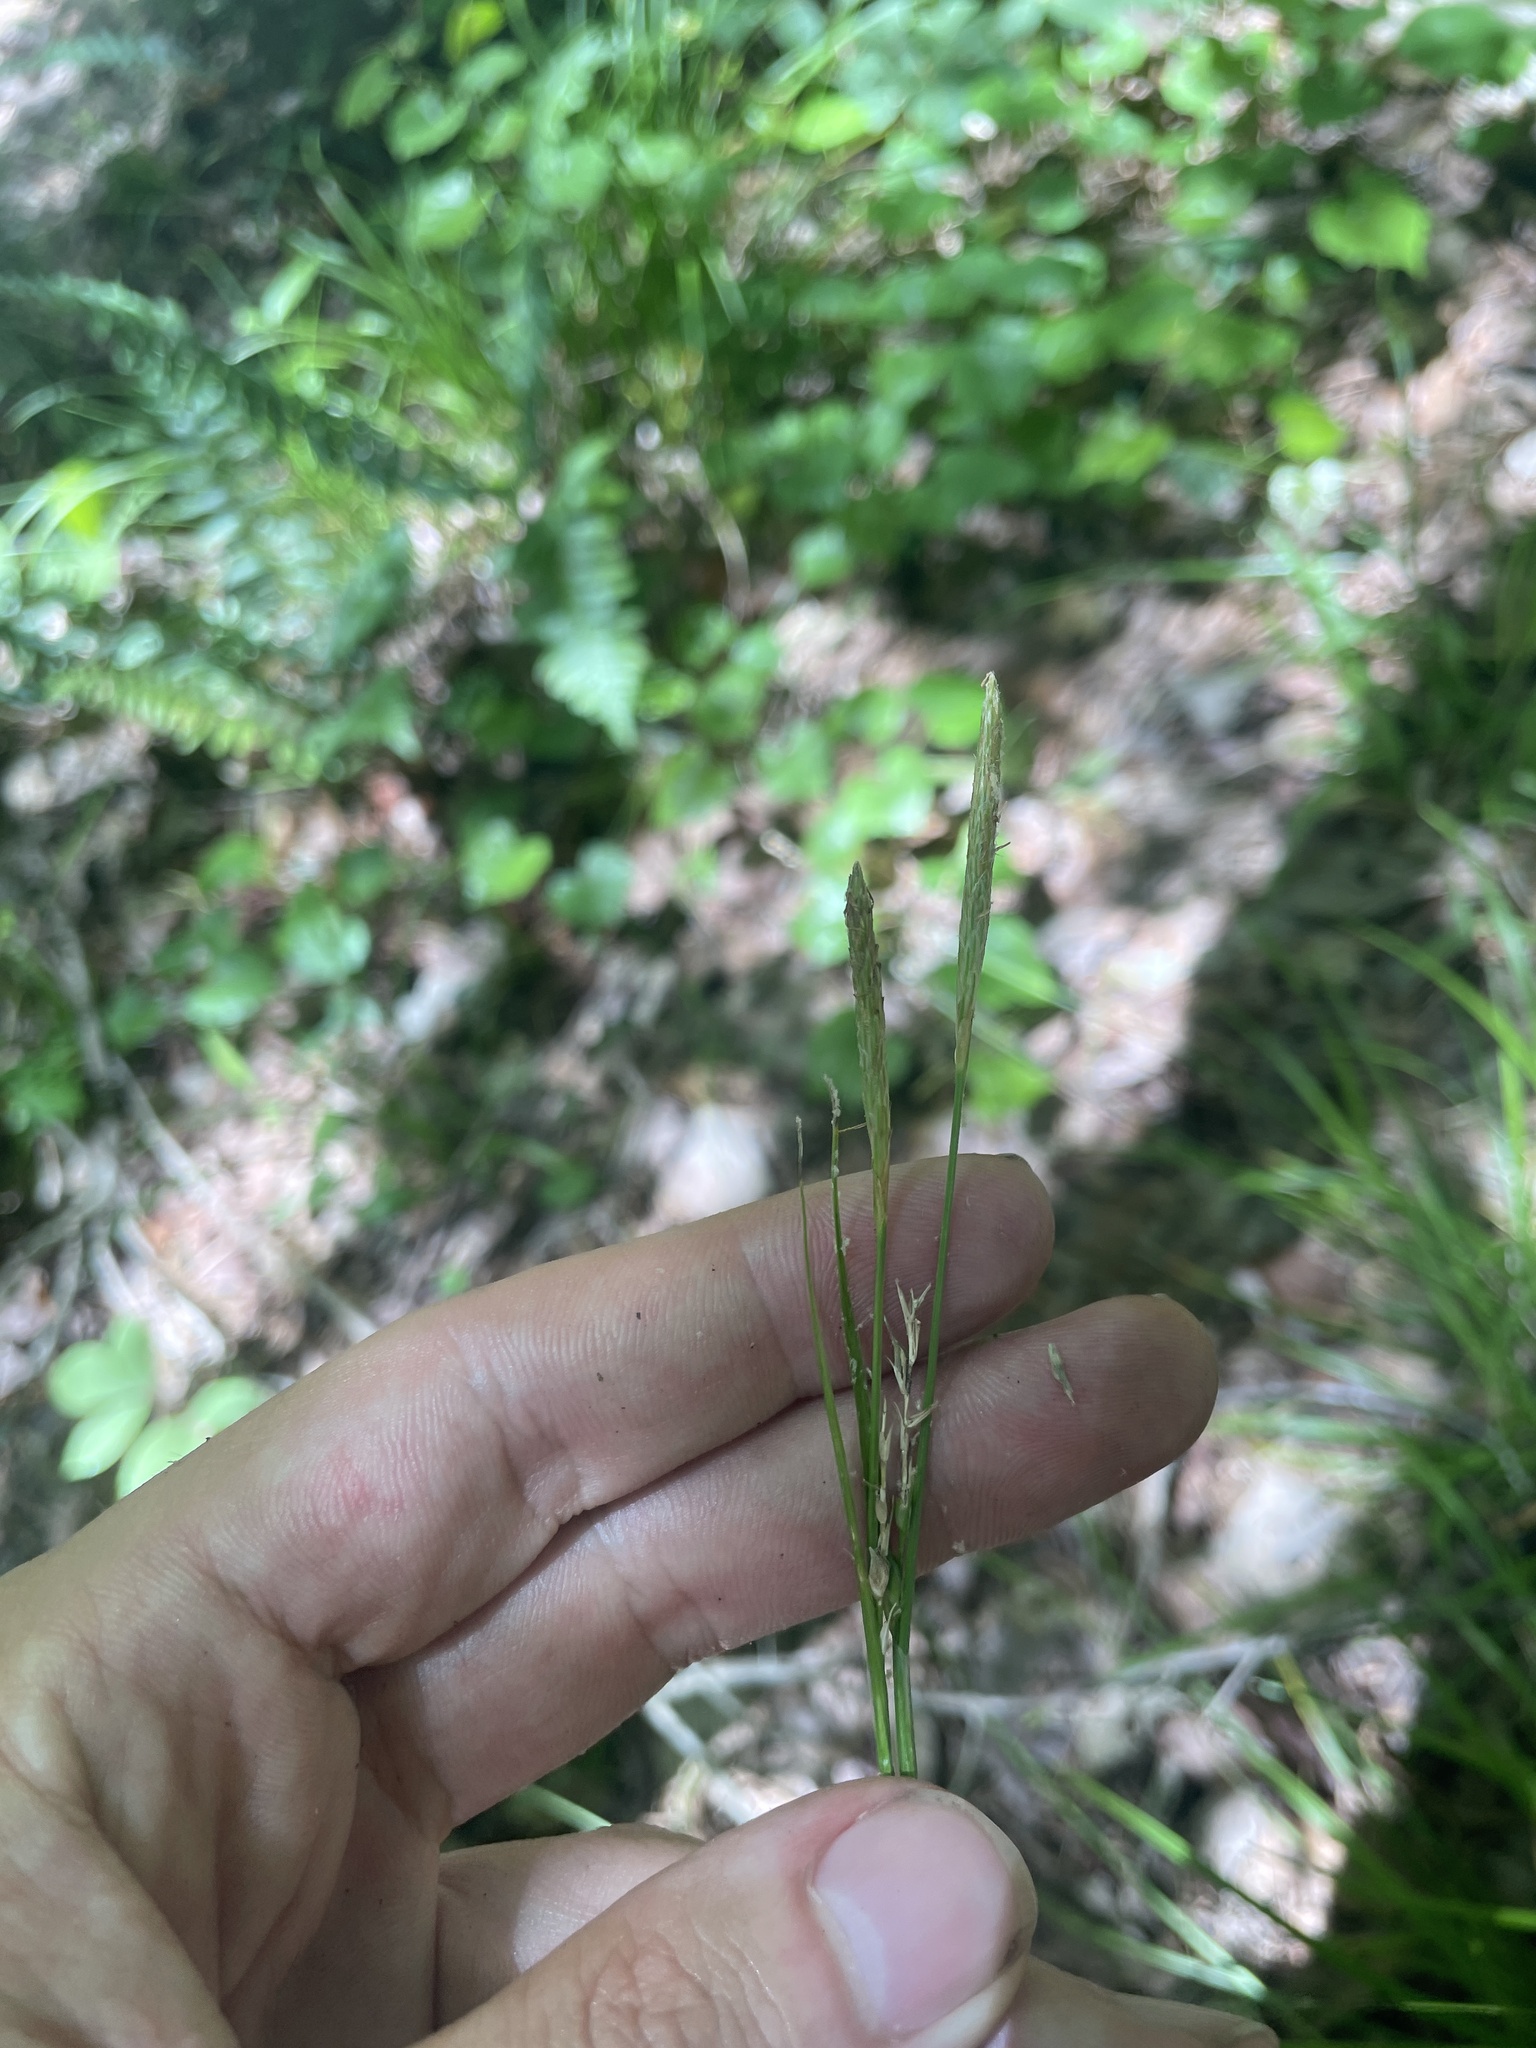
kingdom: Plantae
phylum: Tracheophyta
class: Liliopsida
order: Poales
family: Cyperaceae
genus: Carex
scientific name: Carex impressinervia
